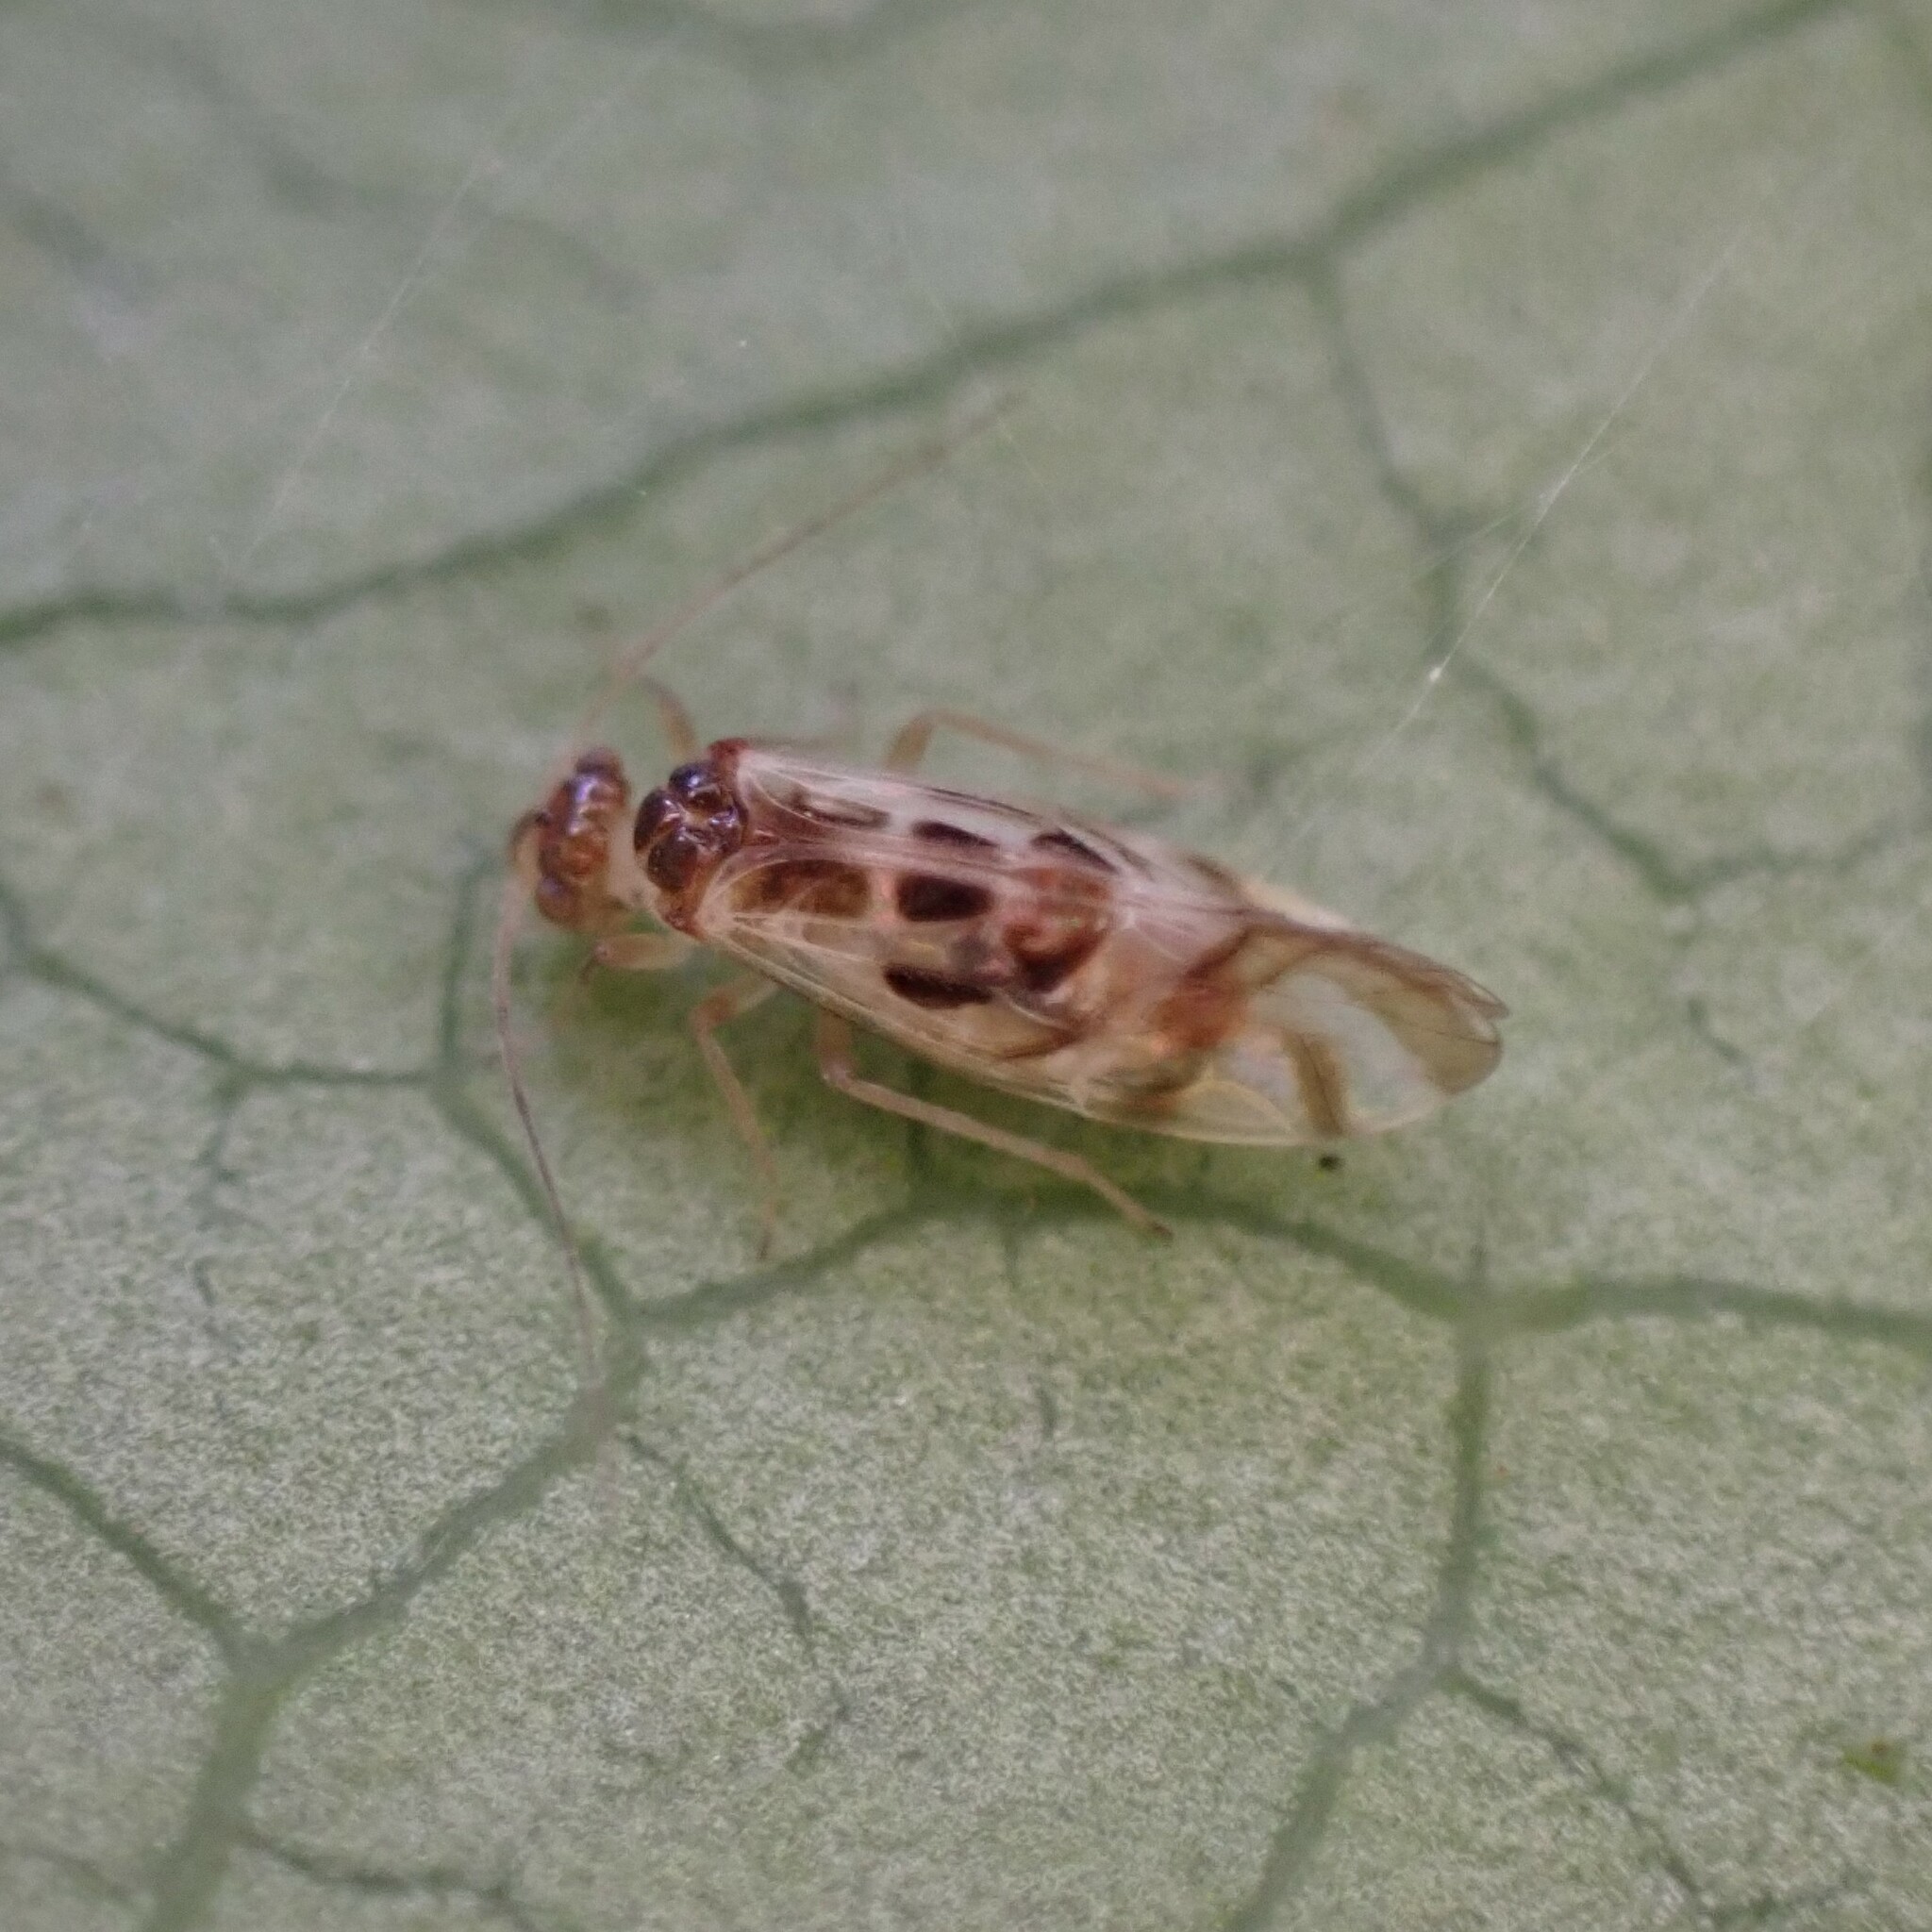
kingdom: Animalia
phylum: Arthropoda
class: Insecta
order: Psocodea
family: Stenopsocidae
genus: Graphopsocus
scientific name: Graphopsocus cruciatus
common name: Lizard bark louse
